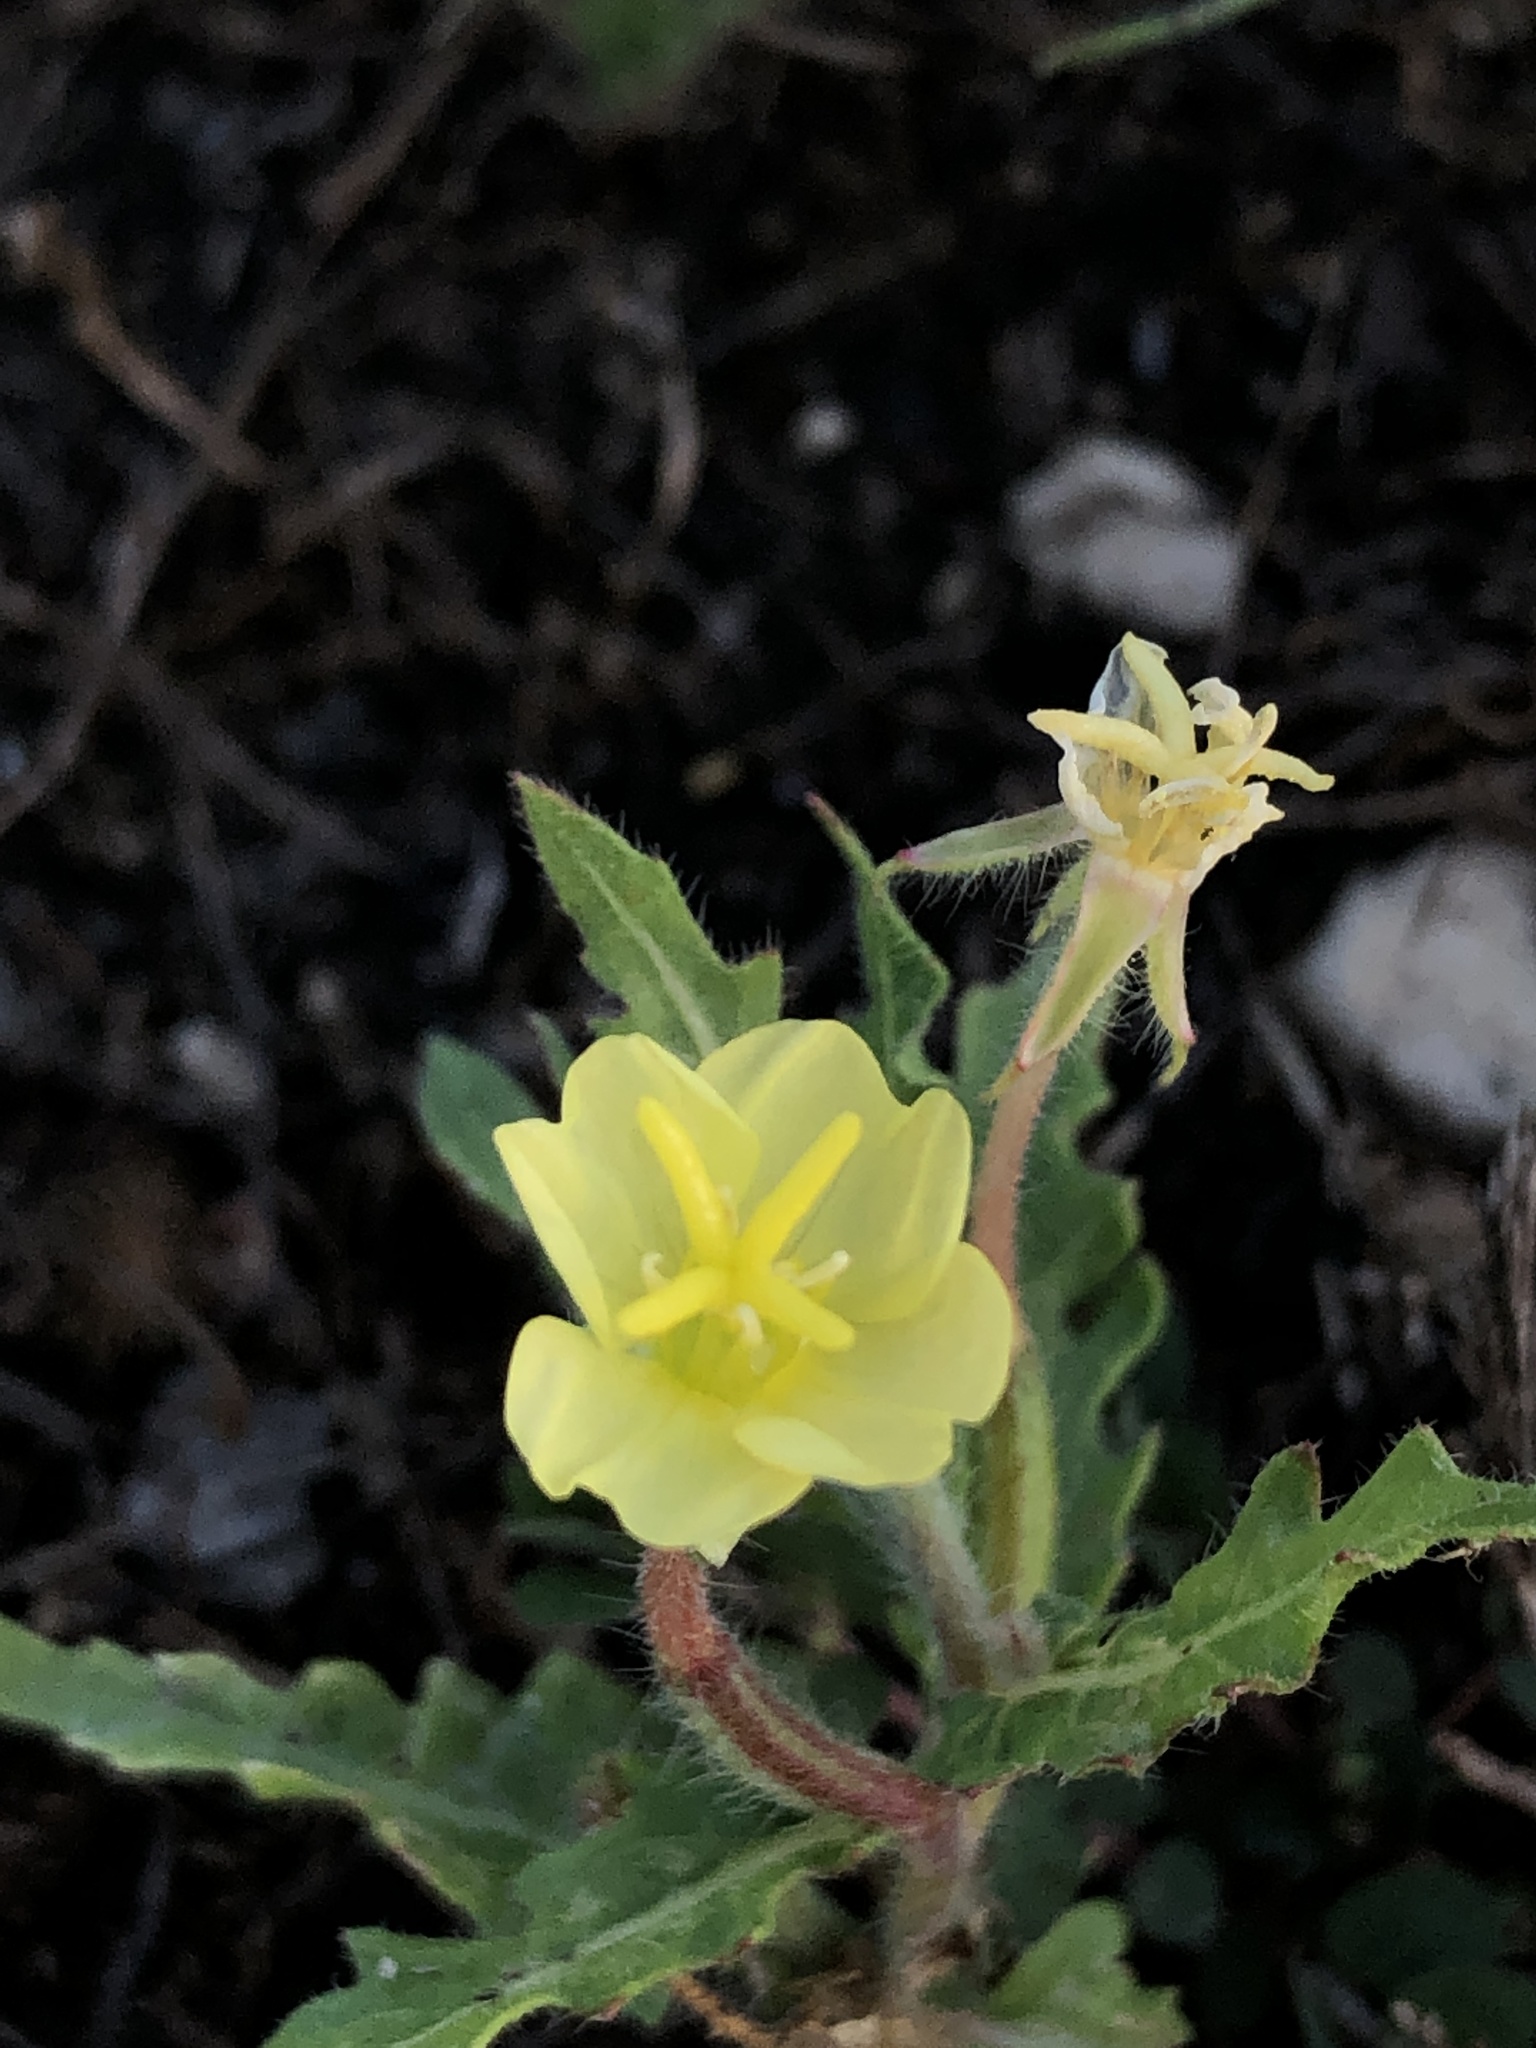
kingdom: Plantae
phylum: Tracheophyta
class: Magnoliopsida
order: Myrtales
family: Onagraceae
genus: Oenothera
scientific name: Oenothera laciniata
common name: Cut-leaved evening-primrose
